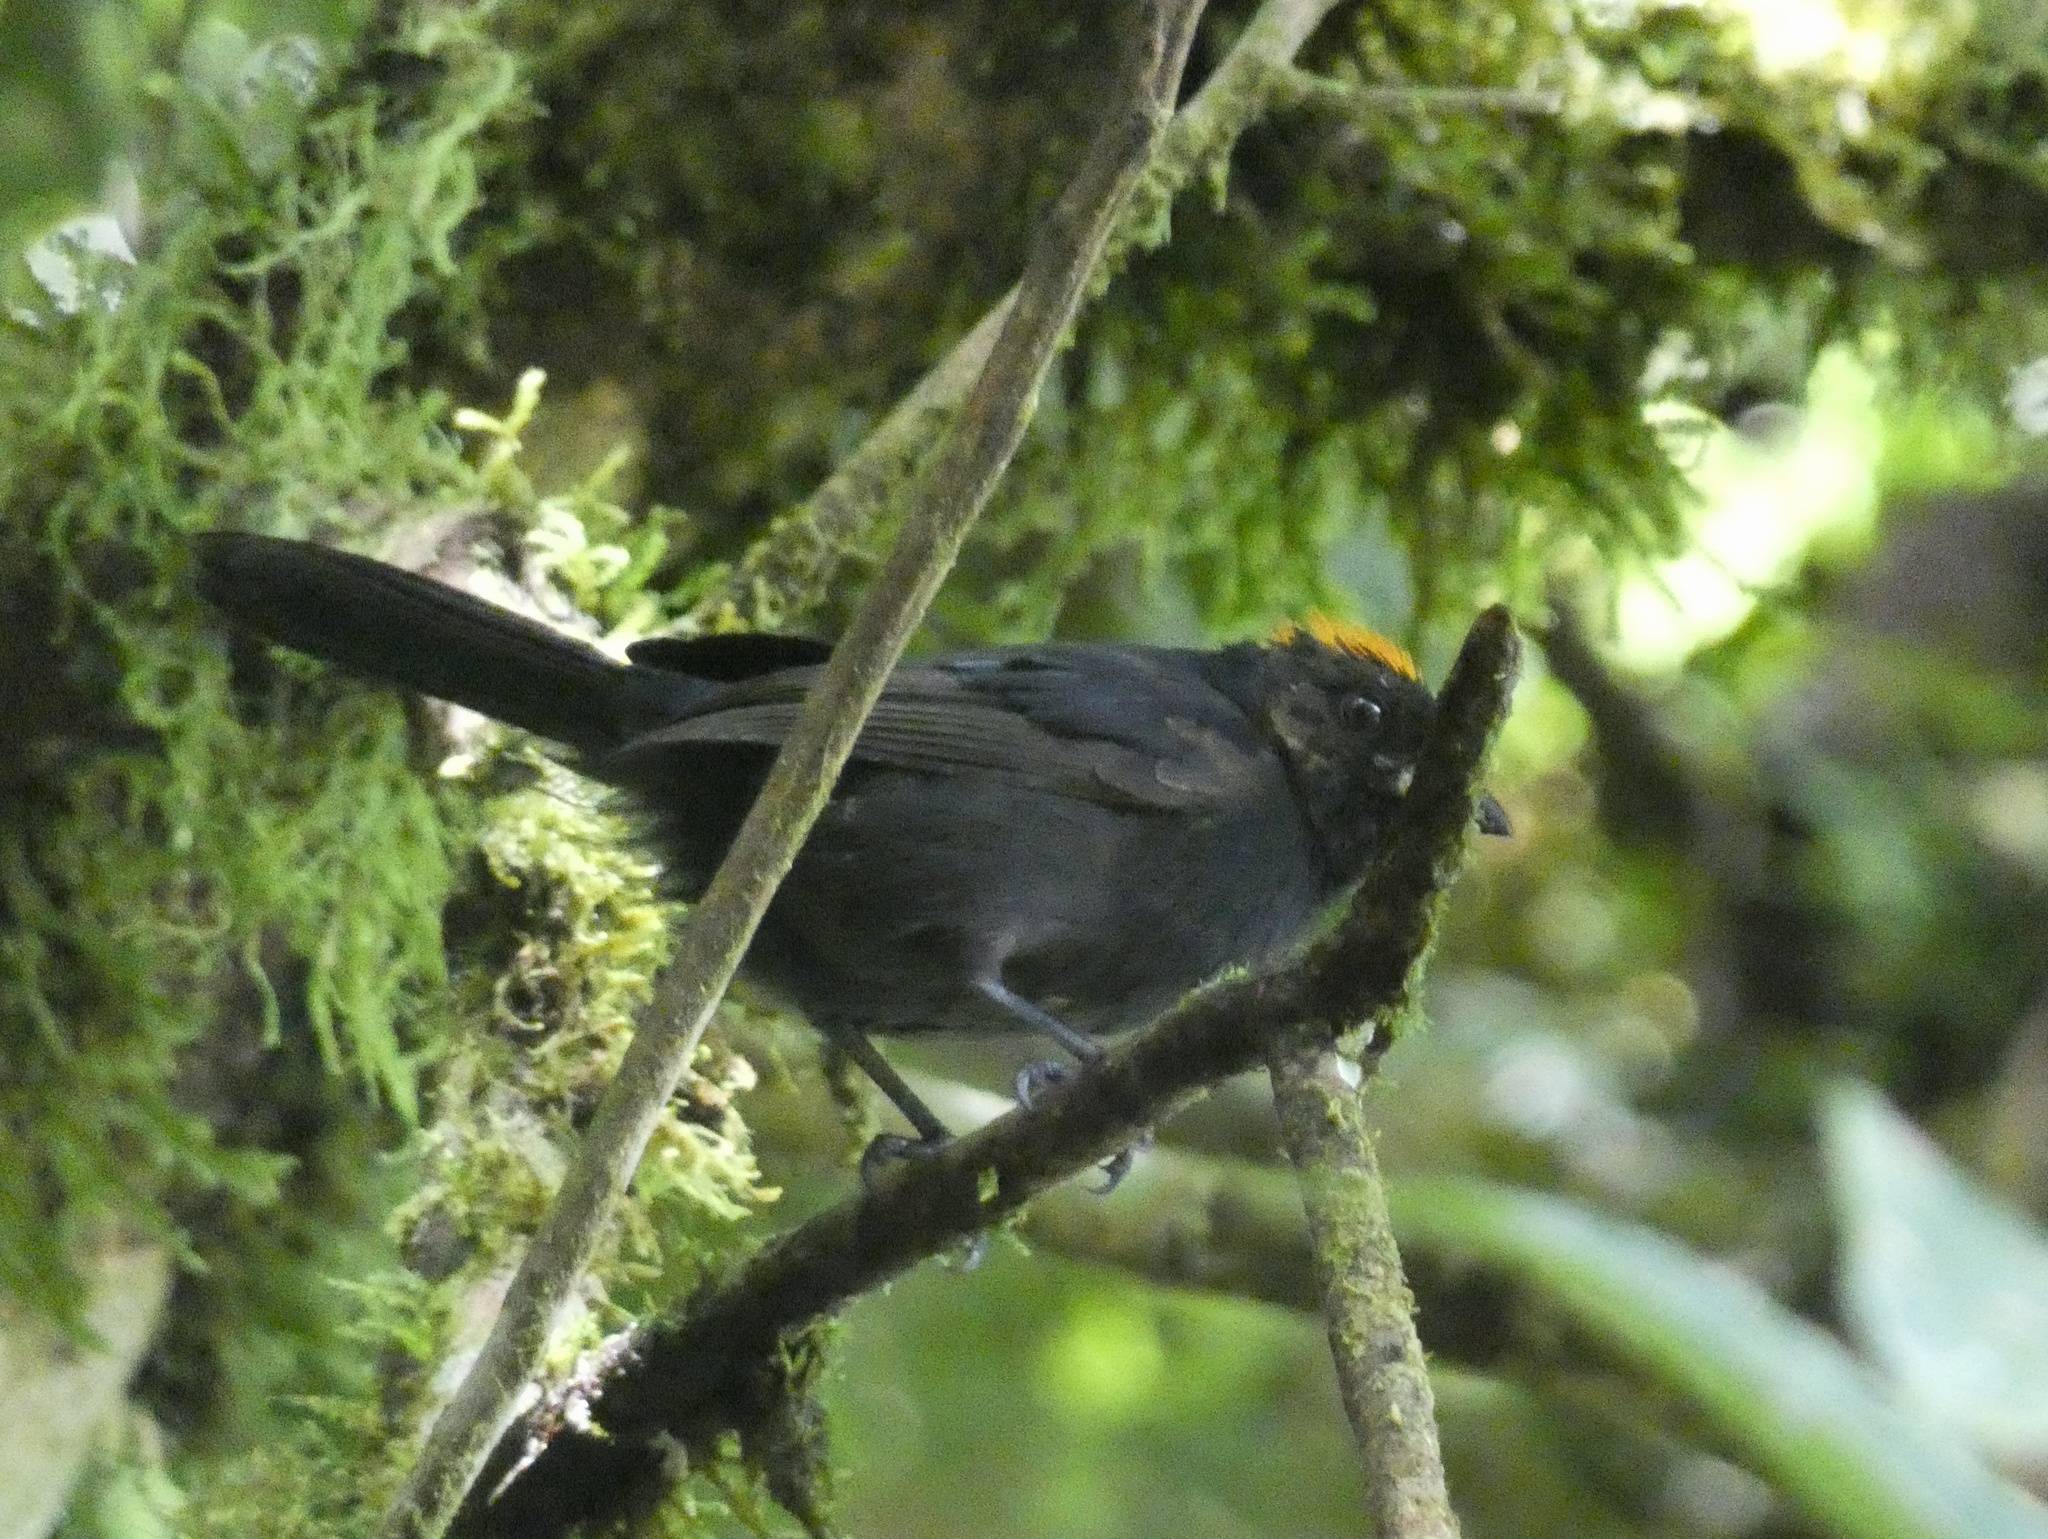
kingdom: Animalia
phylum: Chordata
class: Aves
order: Passeriformes
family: Thraupidae
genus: Tachyphonus
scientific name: Tachyphonus delatrii
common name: Tawny-crested tanager
